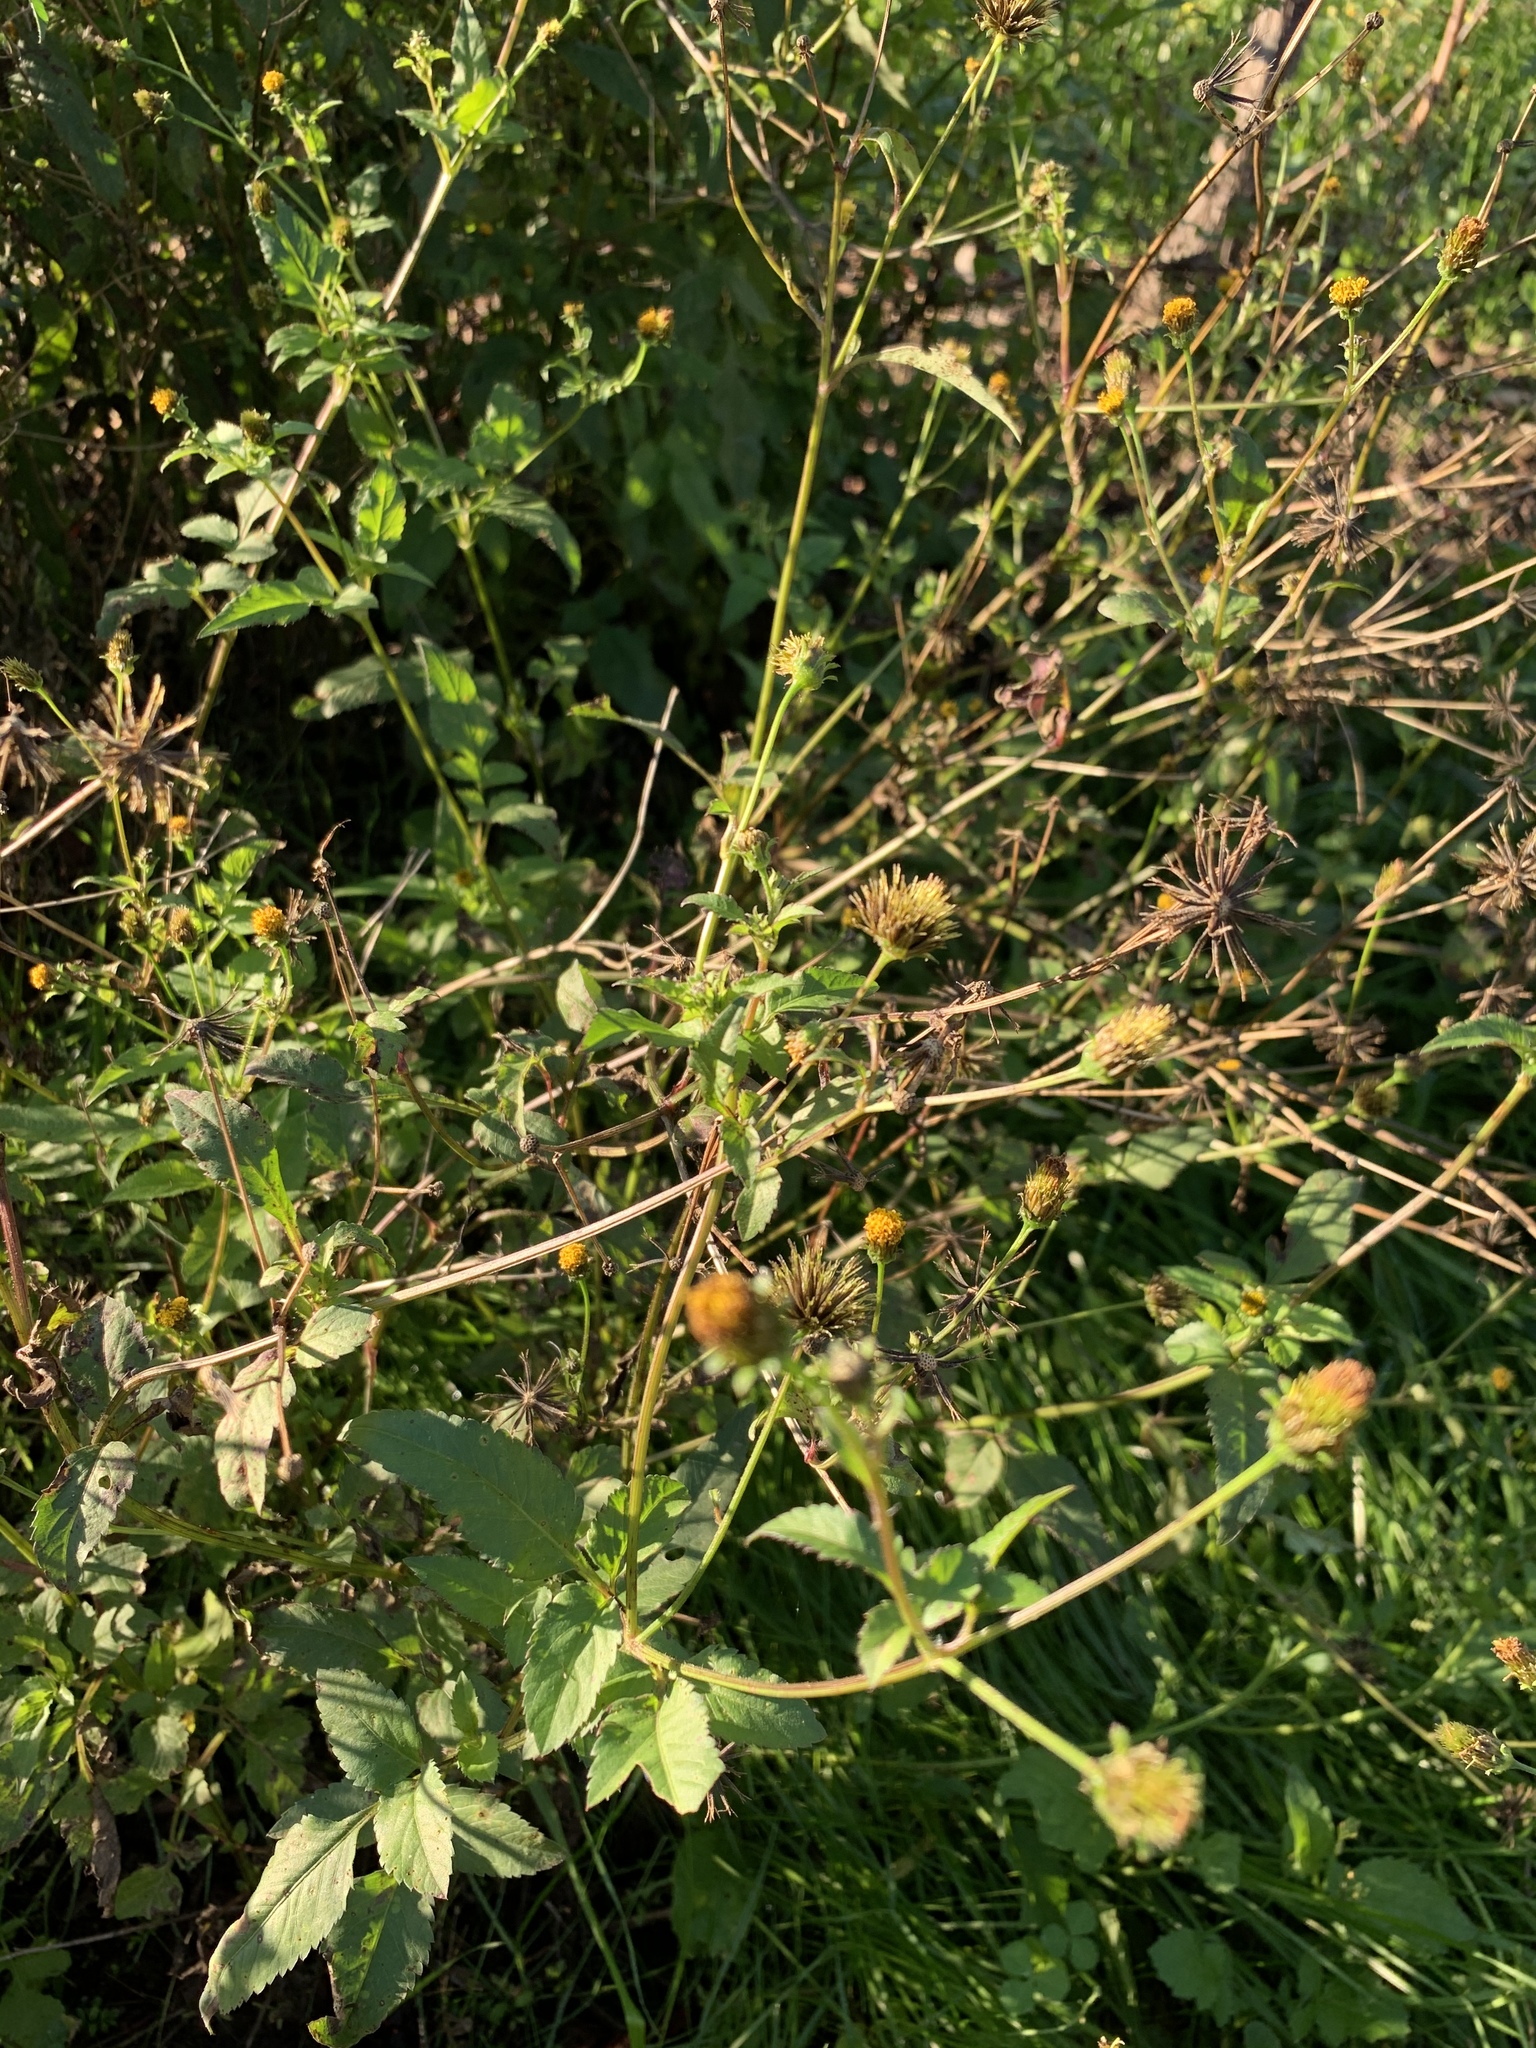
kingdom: Plantae
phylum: Tracheophyta
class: Magnoliopsida
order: Asterales
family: Asteraceae
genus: Bidens
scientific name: Bidens pilosa
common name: Black-jack
